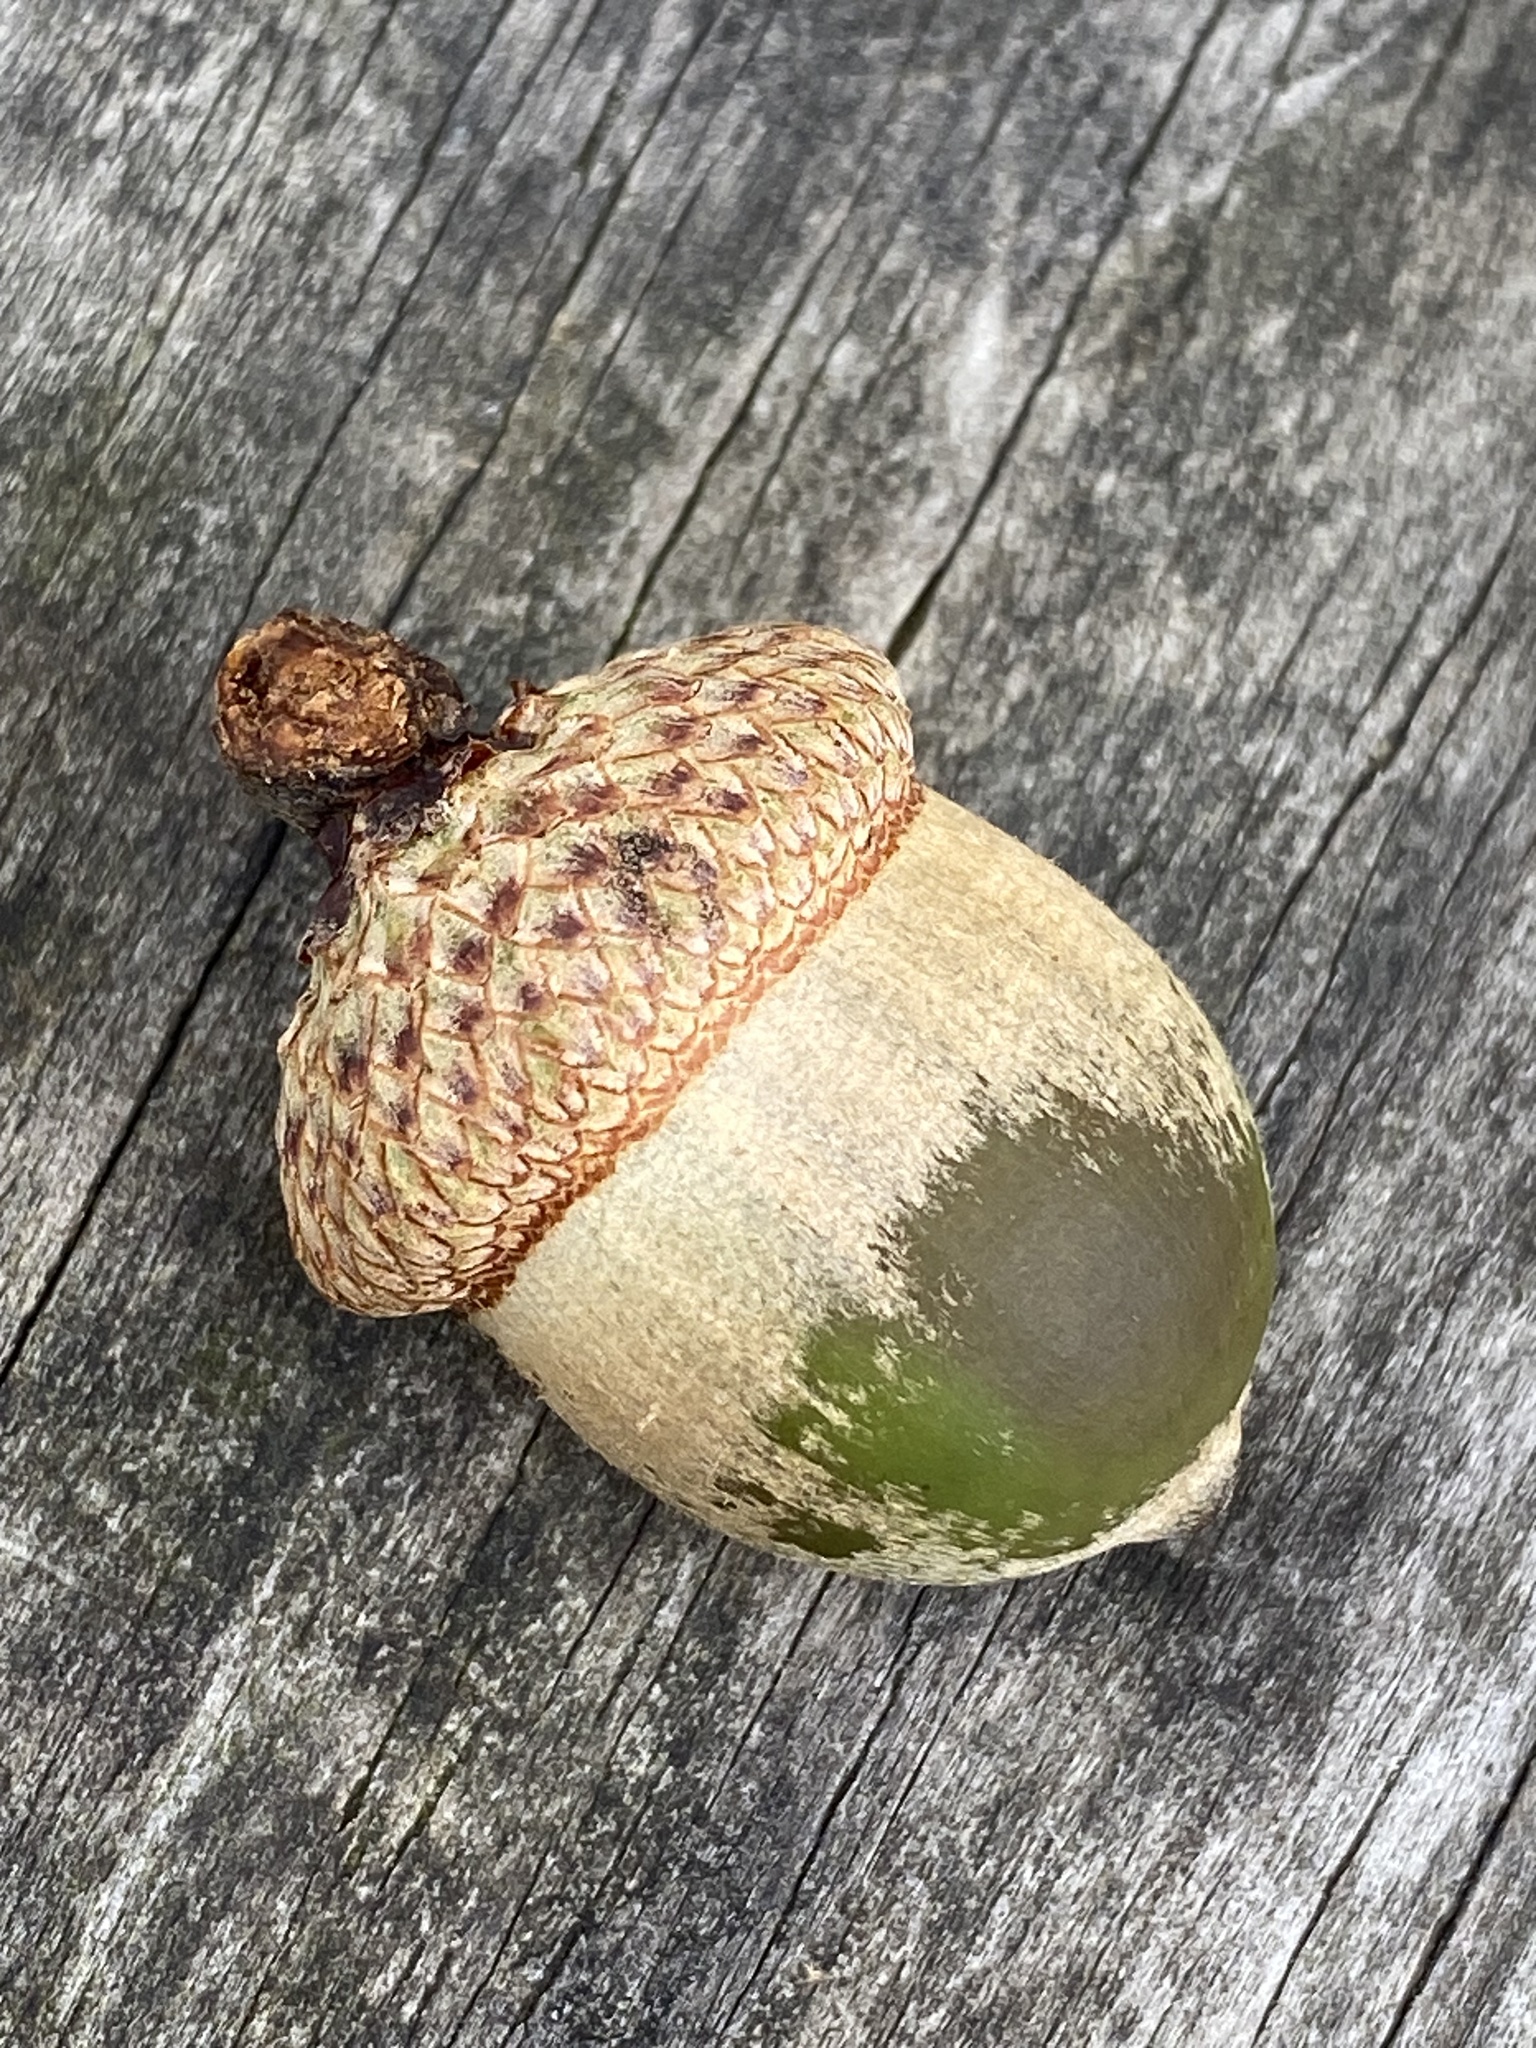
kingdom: Plantae
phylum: Tracheophyta
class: Magnoliopsida
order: Fagales
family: Fagaceae
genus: Quercus
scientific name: Quercus rubra
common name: Red oak
